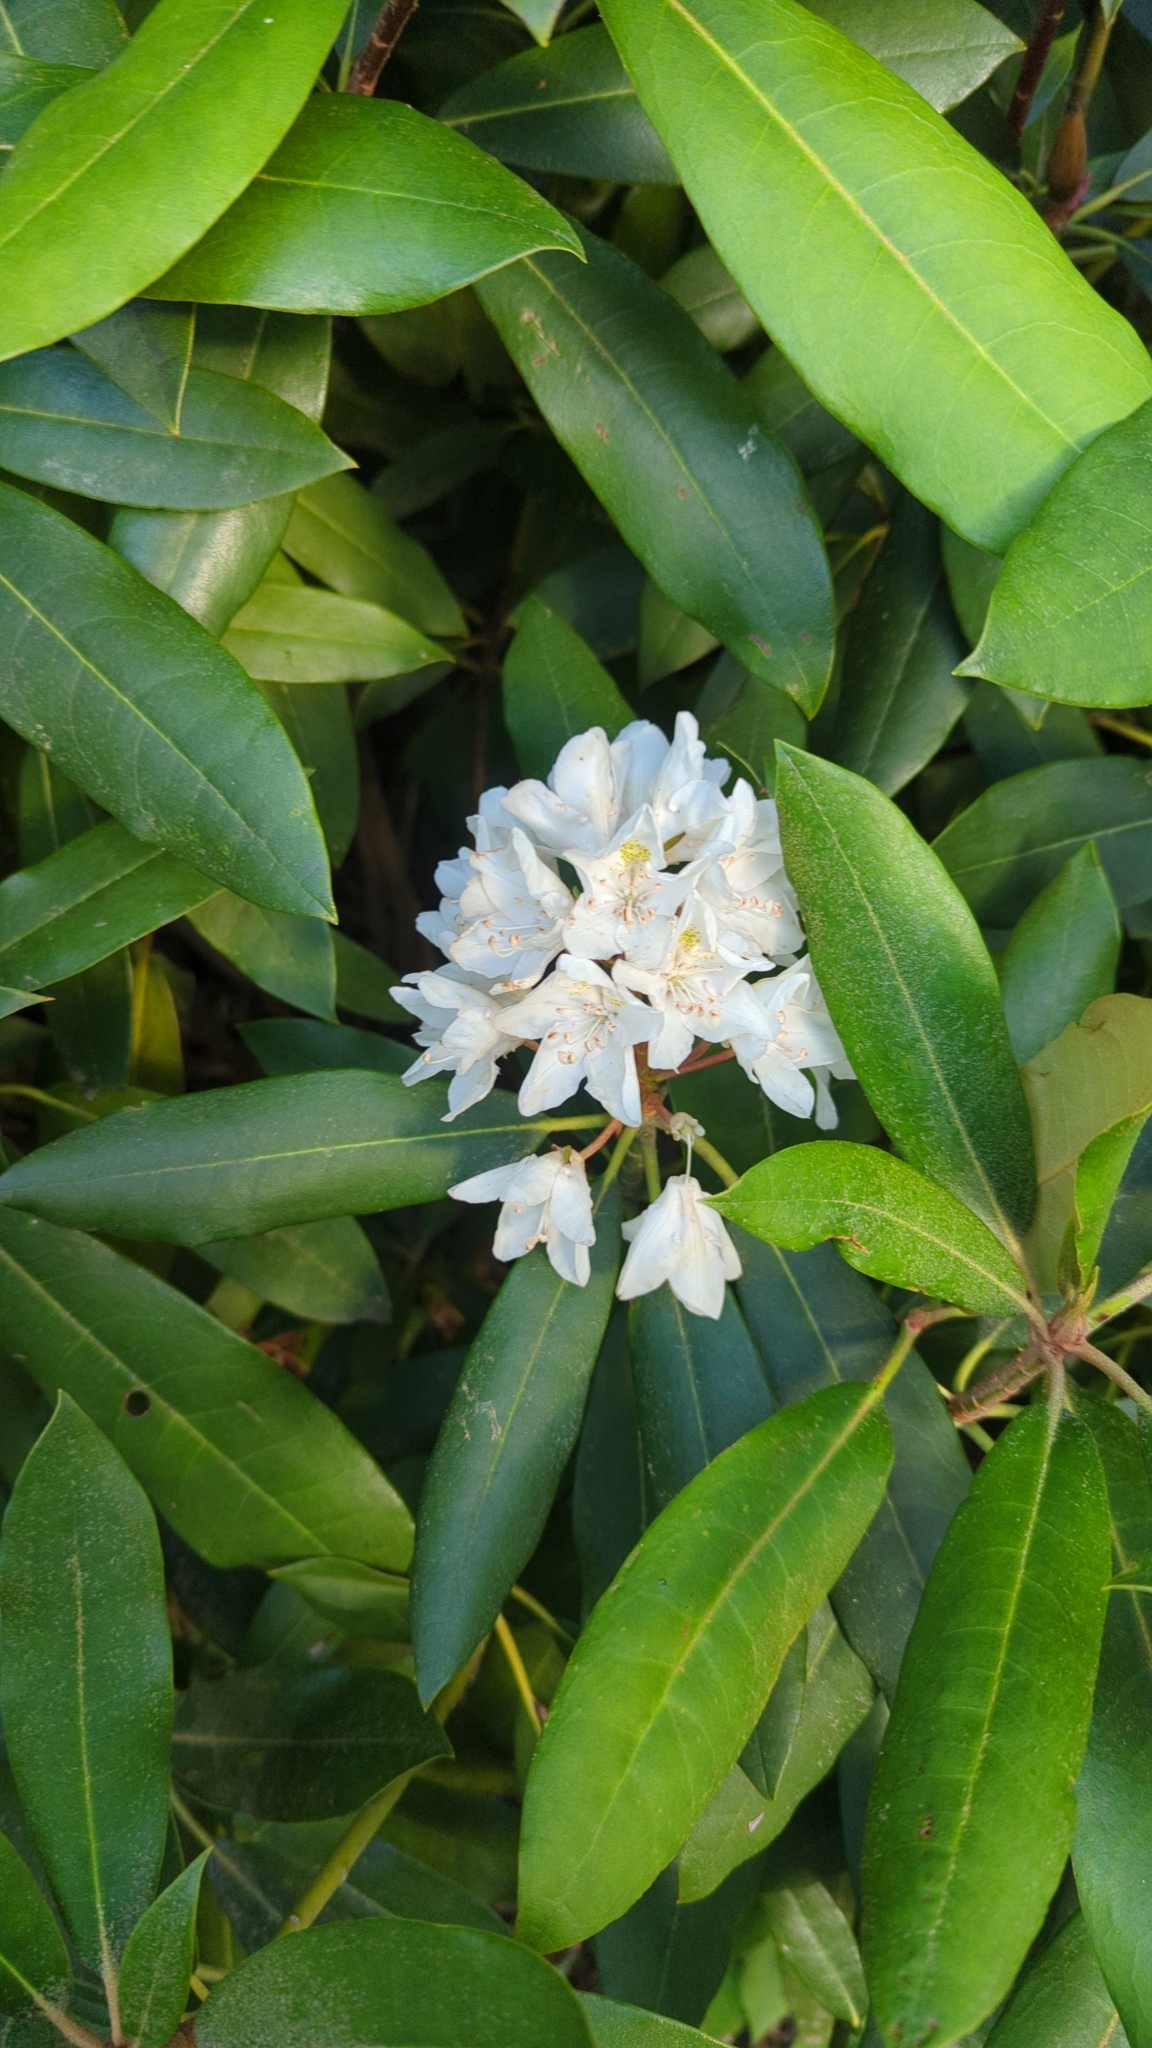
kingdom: Plantae
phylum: Tracheophyta
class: Magnoliopsida
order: Ericales
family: Ericaceae
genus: Rhododendron
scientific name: Rhododendron maximum
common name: Great rhododendron
